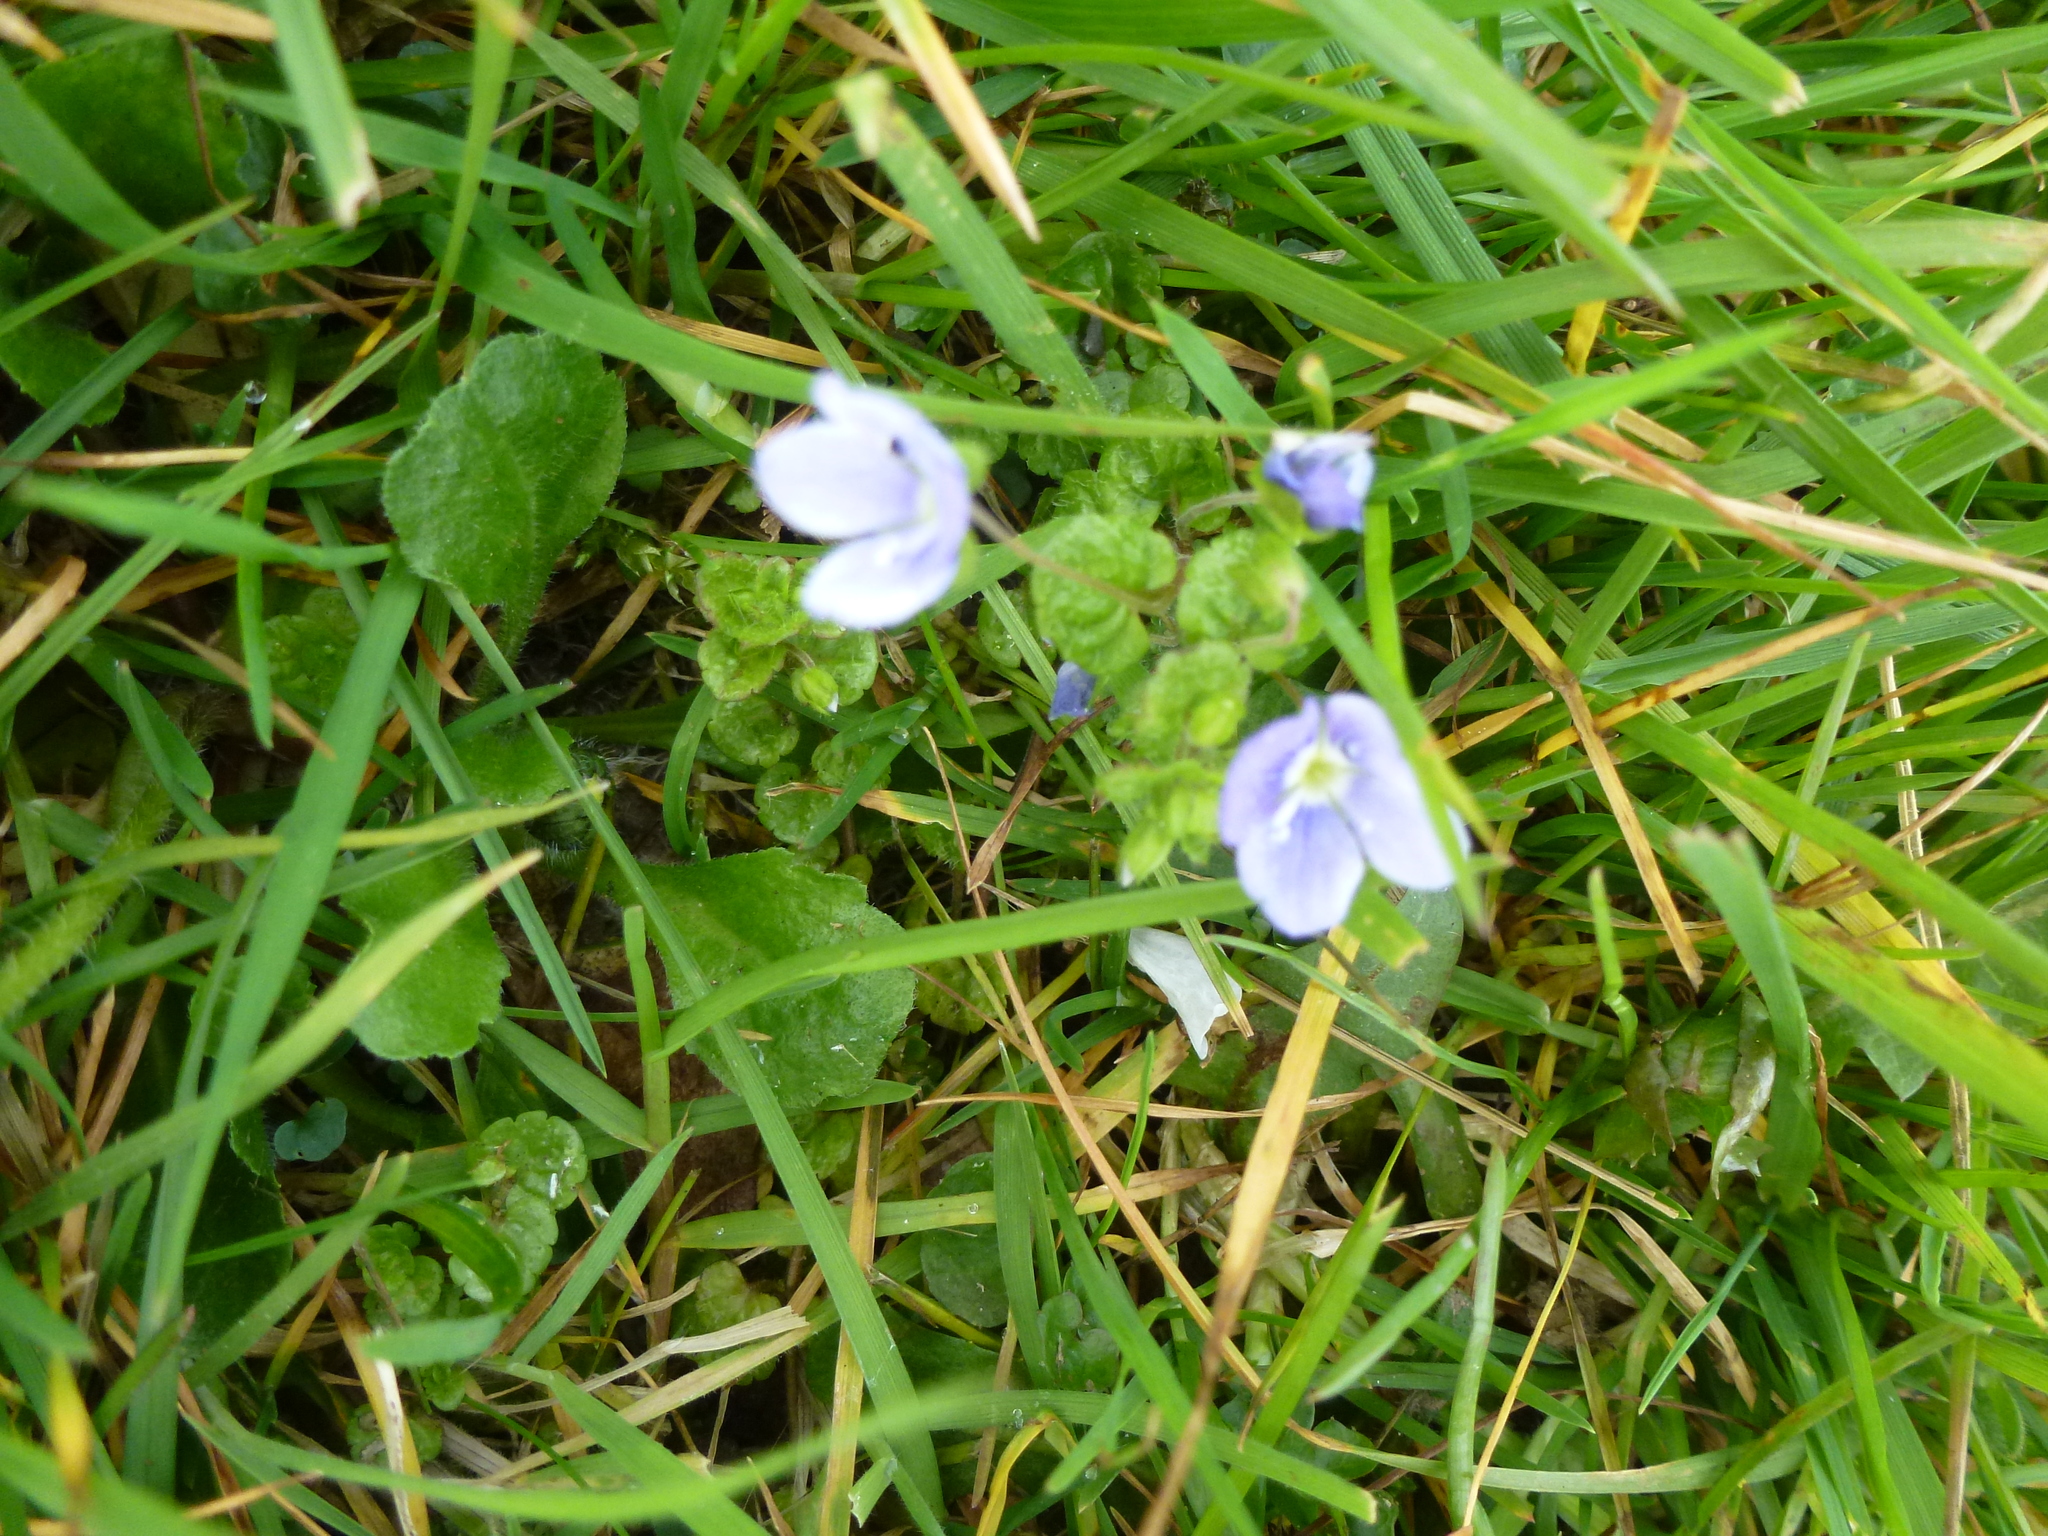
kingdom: Plantae
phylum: Tracheophyta
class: Magnoliopsida
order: Lamiales
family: Plantaginaceae
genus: Veronica
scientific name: Veronica filiformis
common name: Slender speedwell
